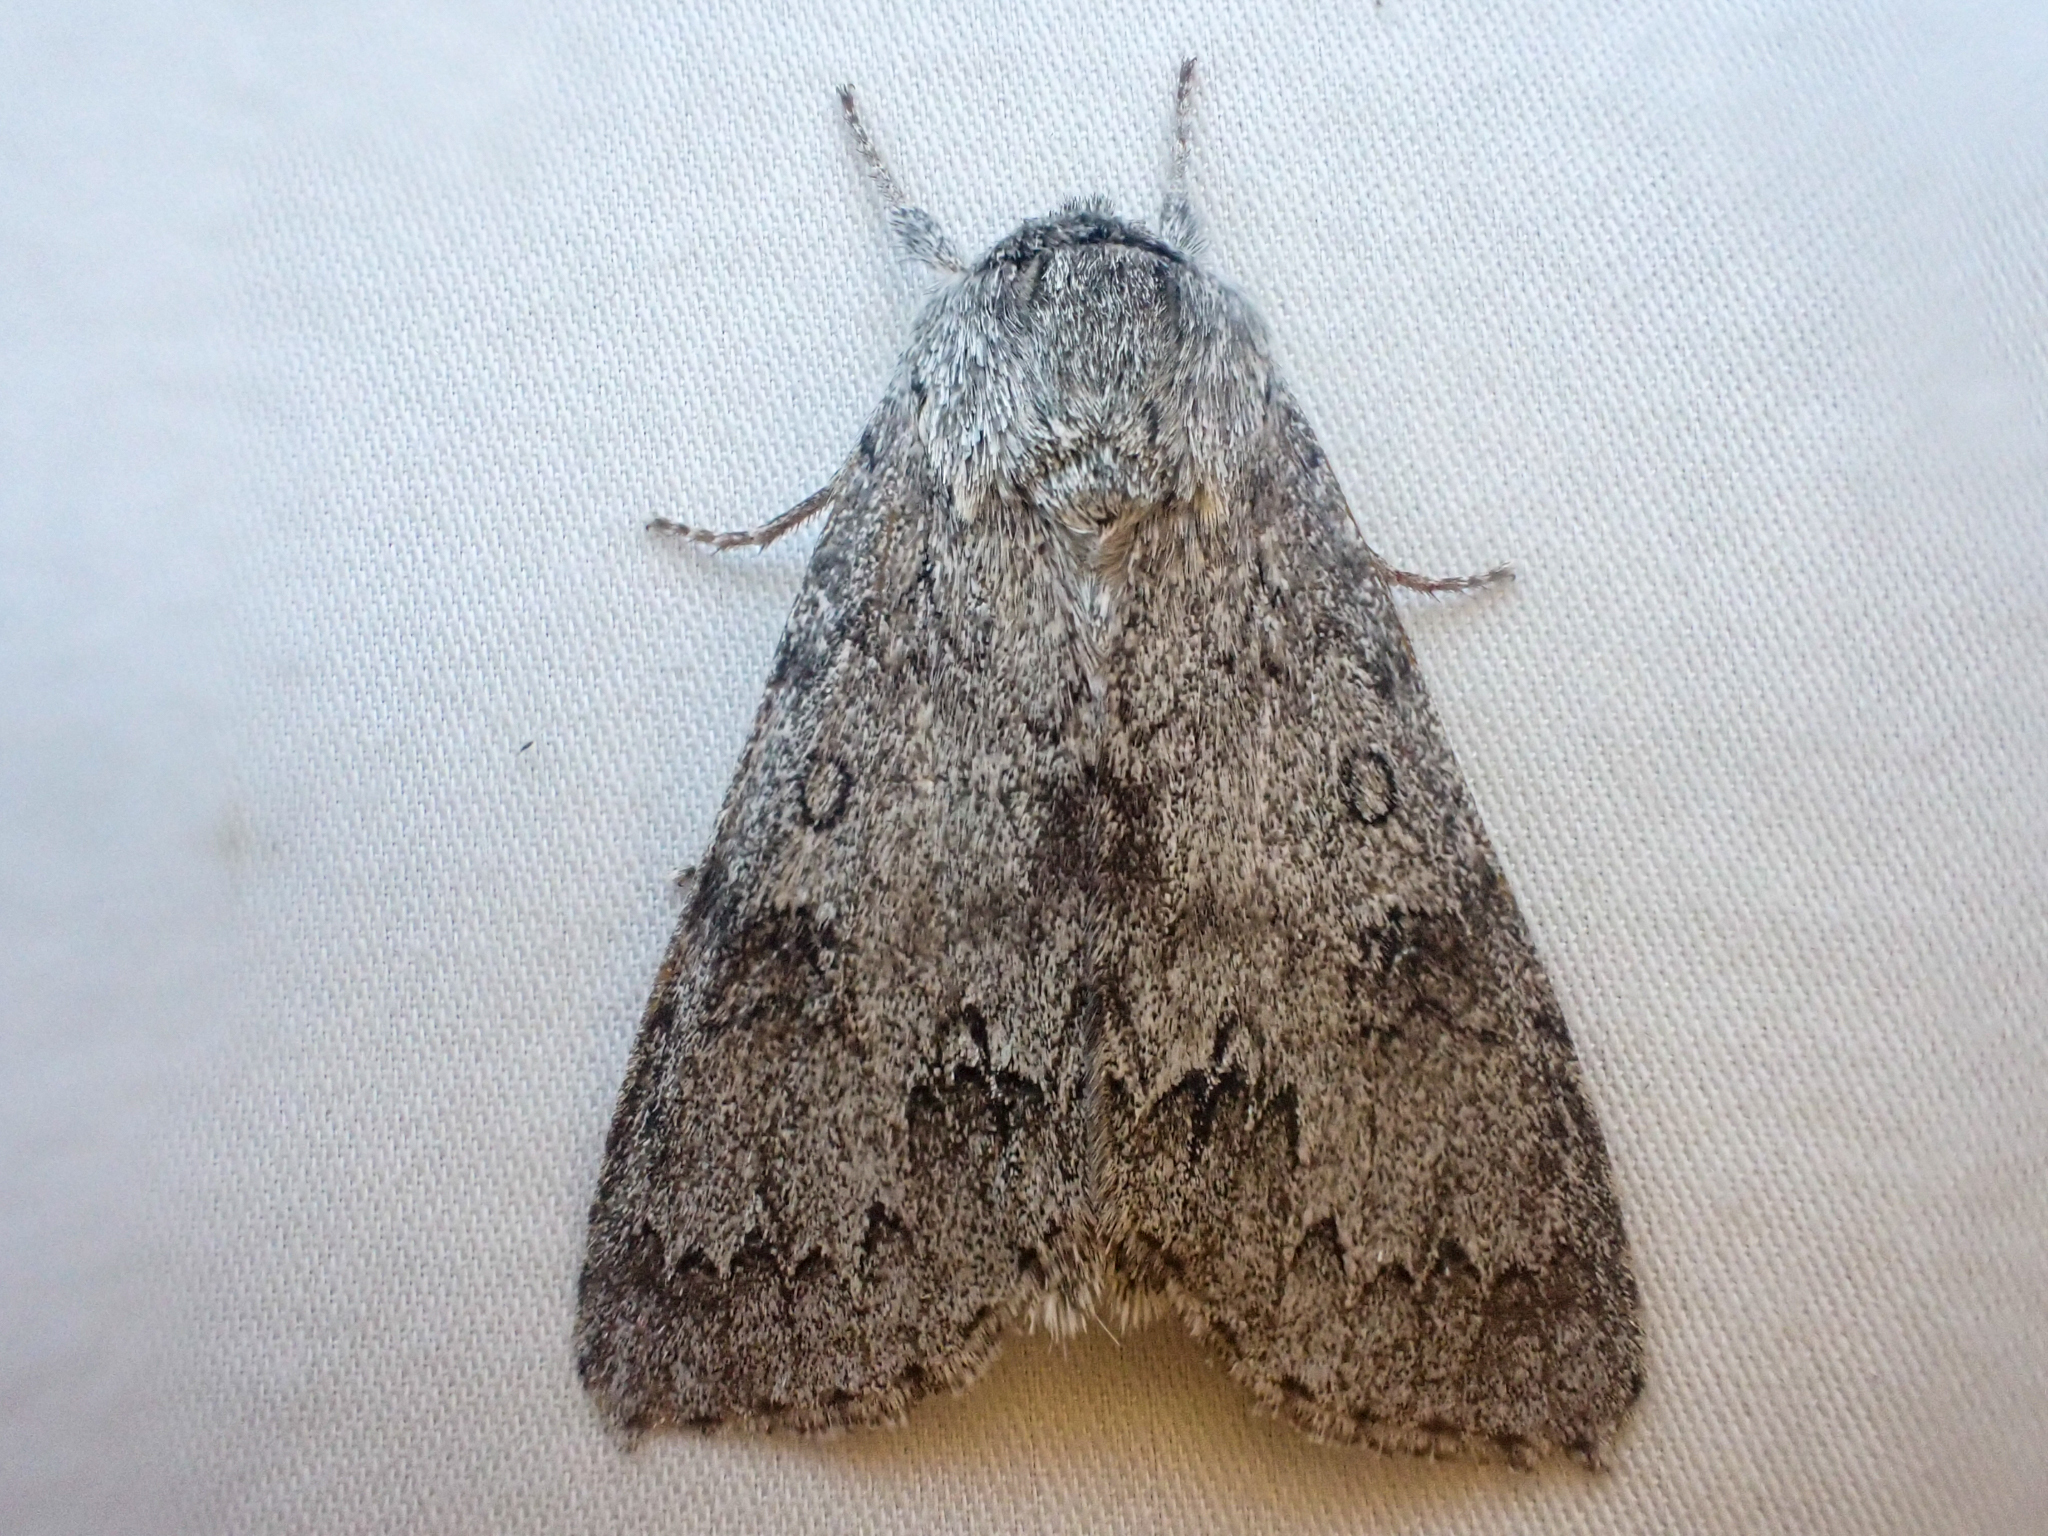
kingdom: Animalia
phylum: Arthropoda
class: Insecta
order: Lepidoptera
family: Noctuidae
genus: Acronicta
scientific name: Acronicta insita
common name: Large gray dagger
